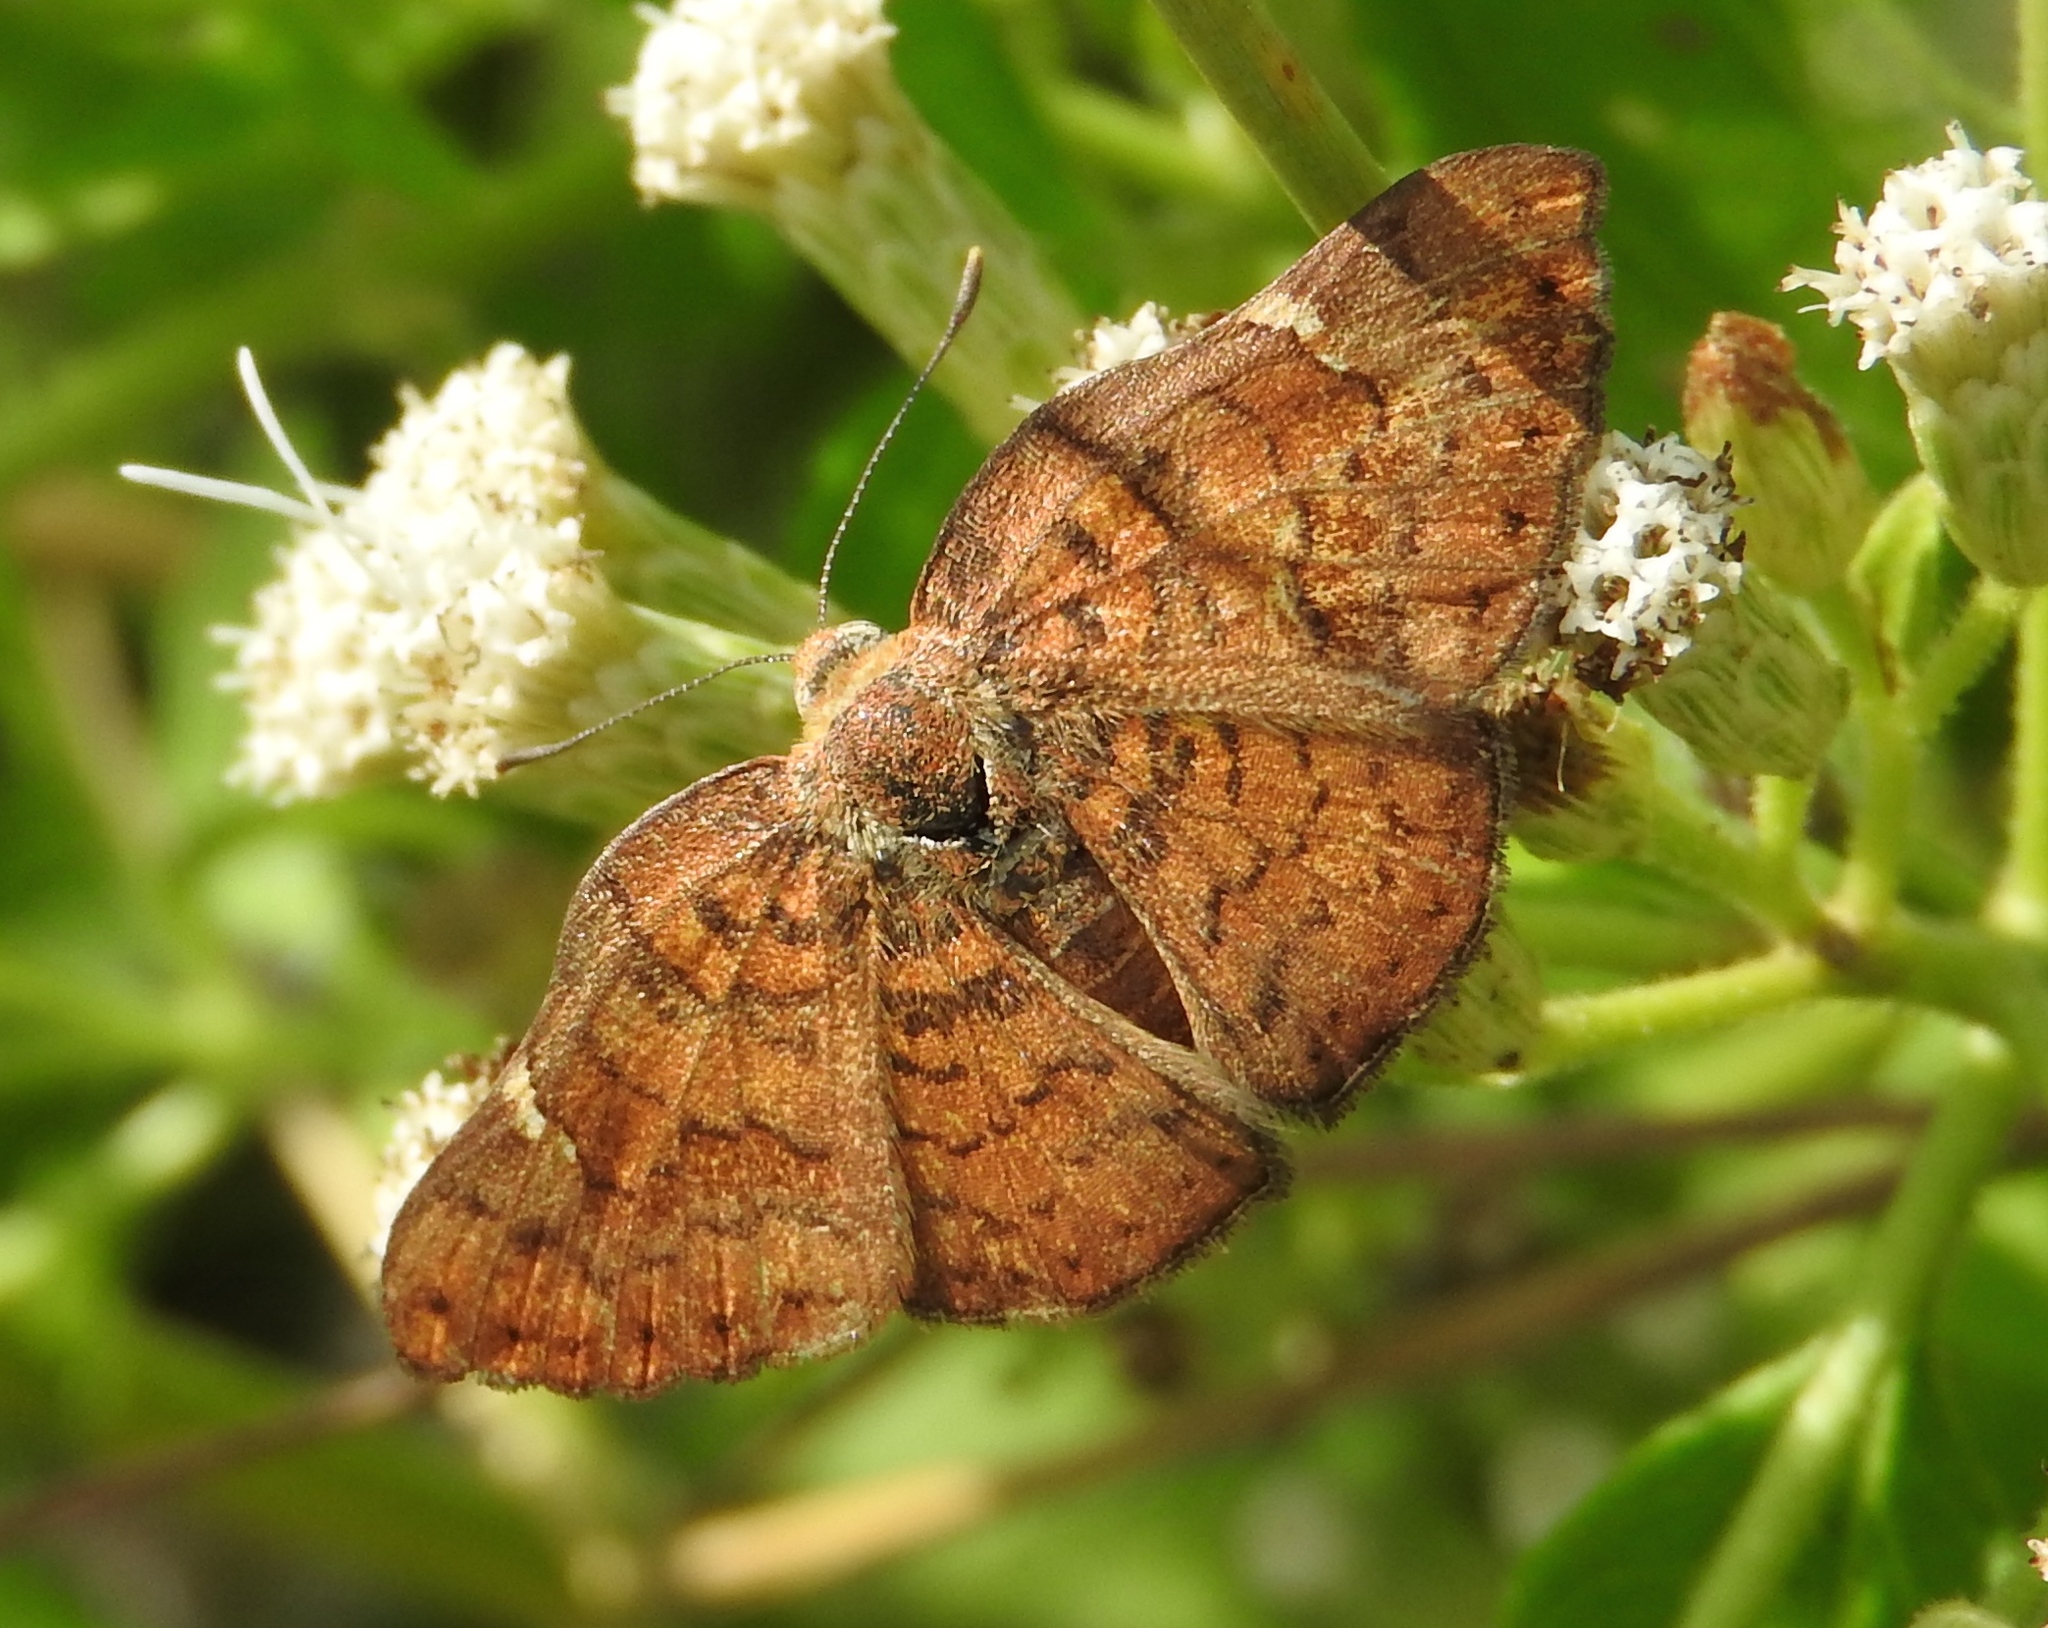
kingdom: Animalia
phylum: Arthropoda
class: Insecta
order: Lepidoptera
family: Riodinidae
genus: Curvie
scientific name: Curvie emesia
